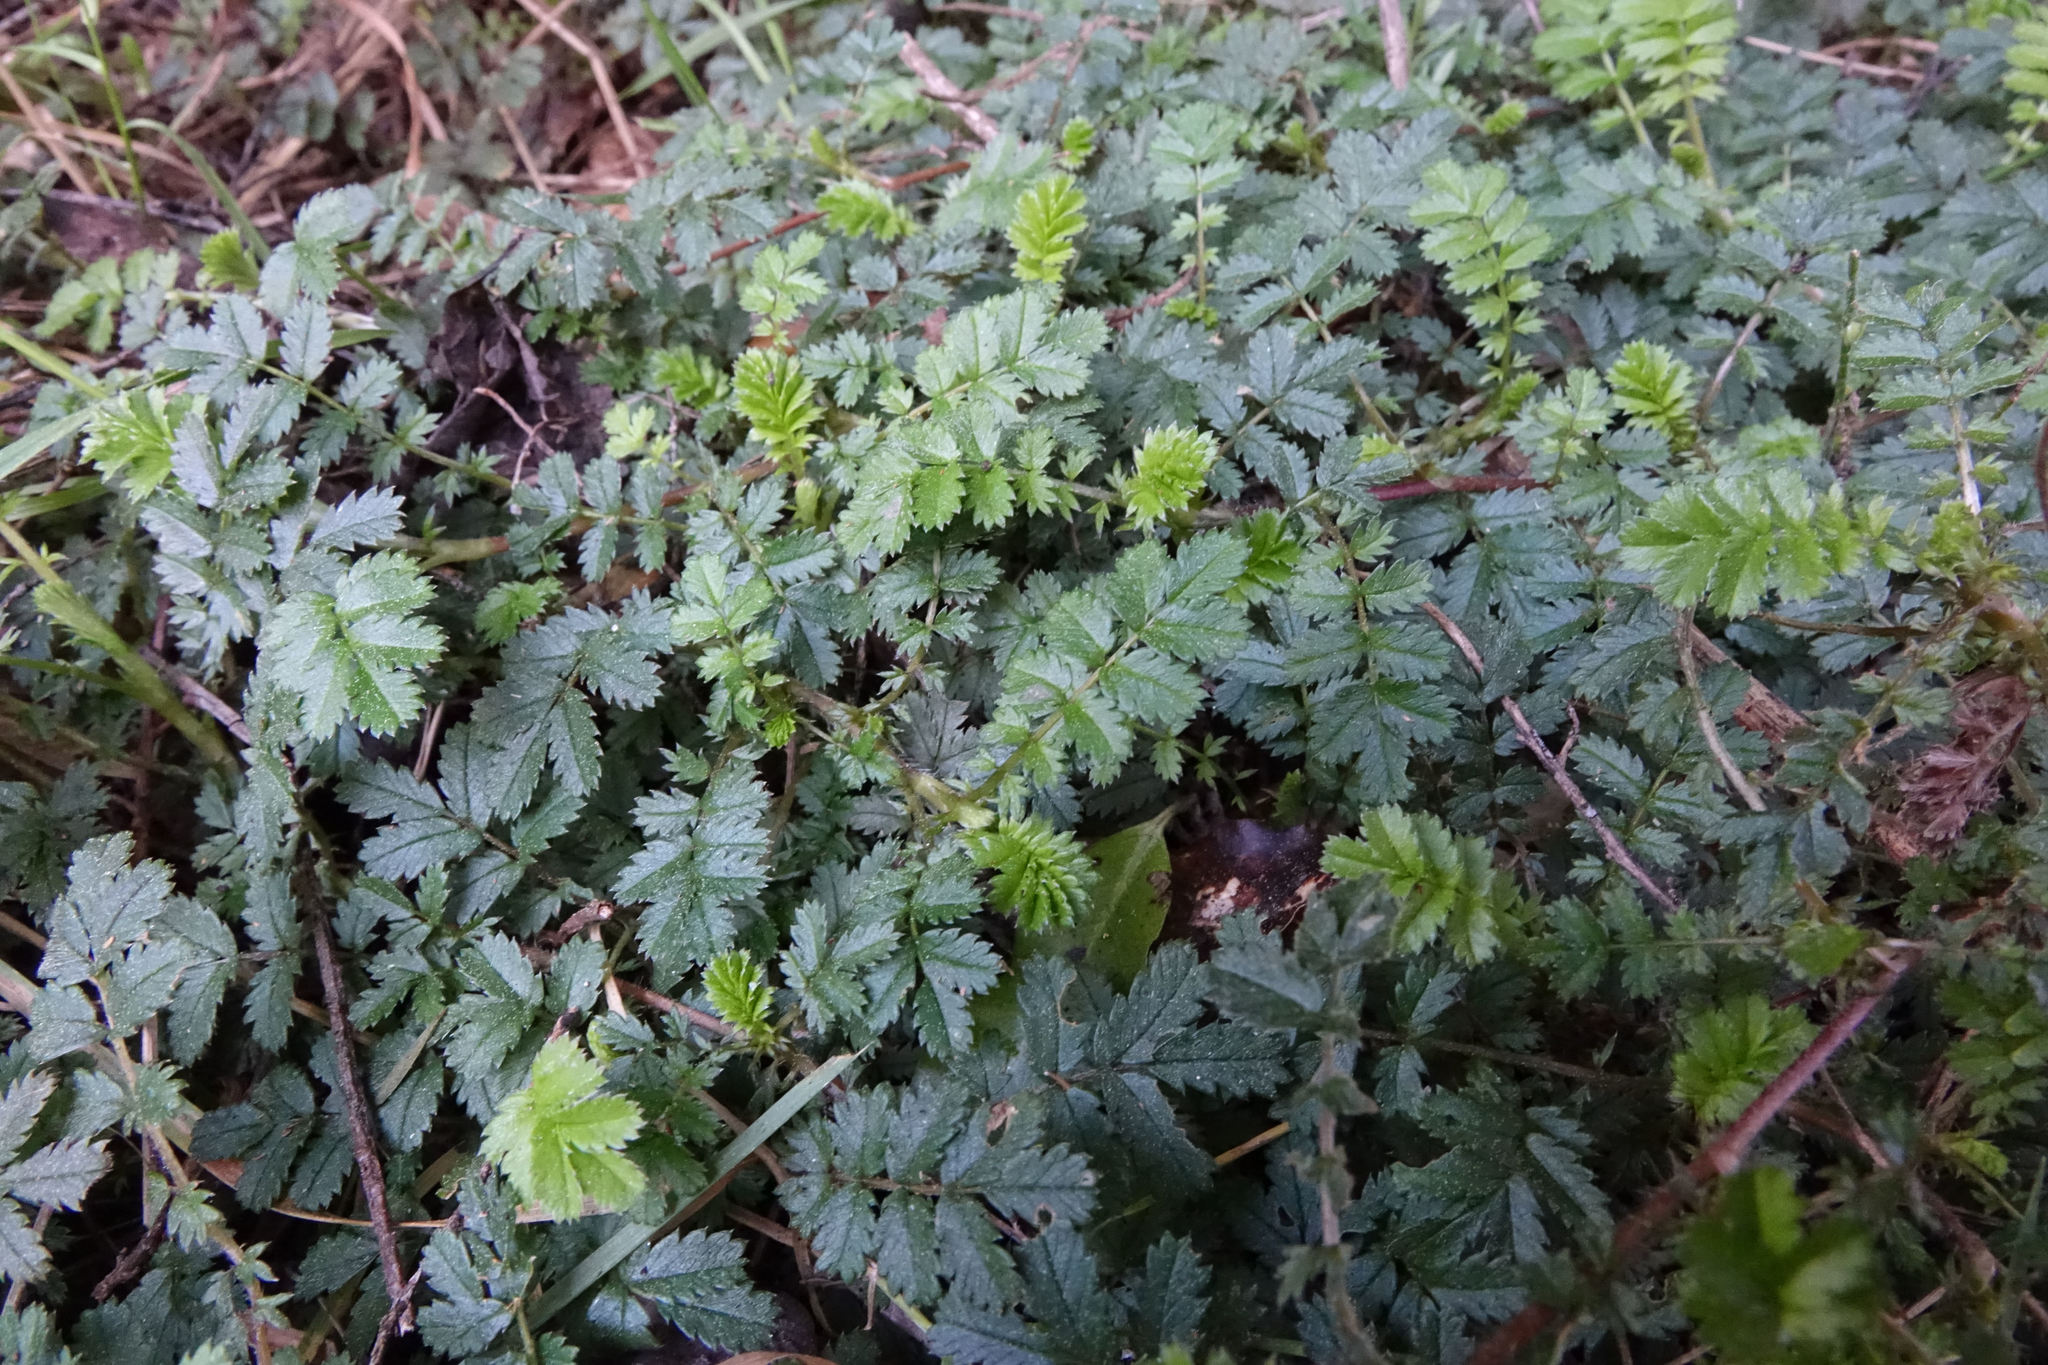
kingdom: Plantae
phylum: Tracheophyta
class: Magnoliopsida
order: Rosales
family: Rosaceae
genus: Acaena
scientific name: Acaena anserinifolia
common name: Bronze pirri-pirri-bur
